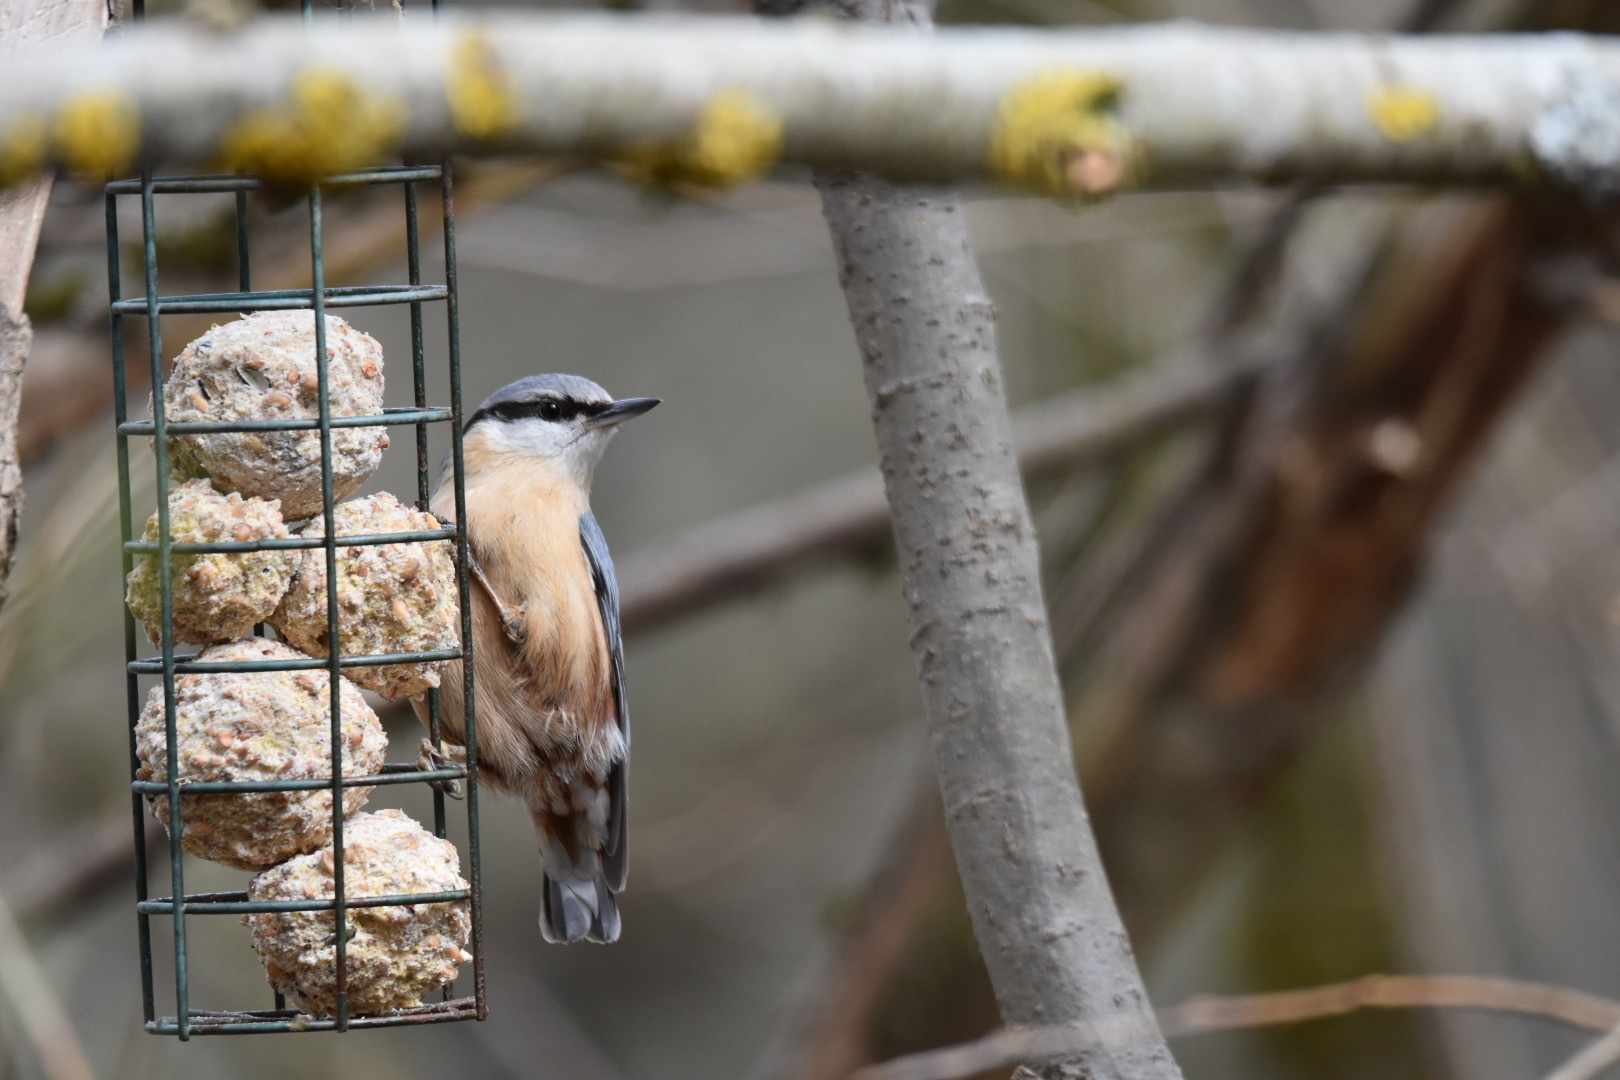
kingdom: Animalia
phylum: Chordata
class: Aves
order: Passeriformes
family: Sittidae
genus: Sitta
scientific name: Sitta europaea
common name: Eurasian nuthatch
